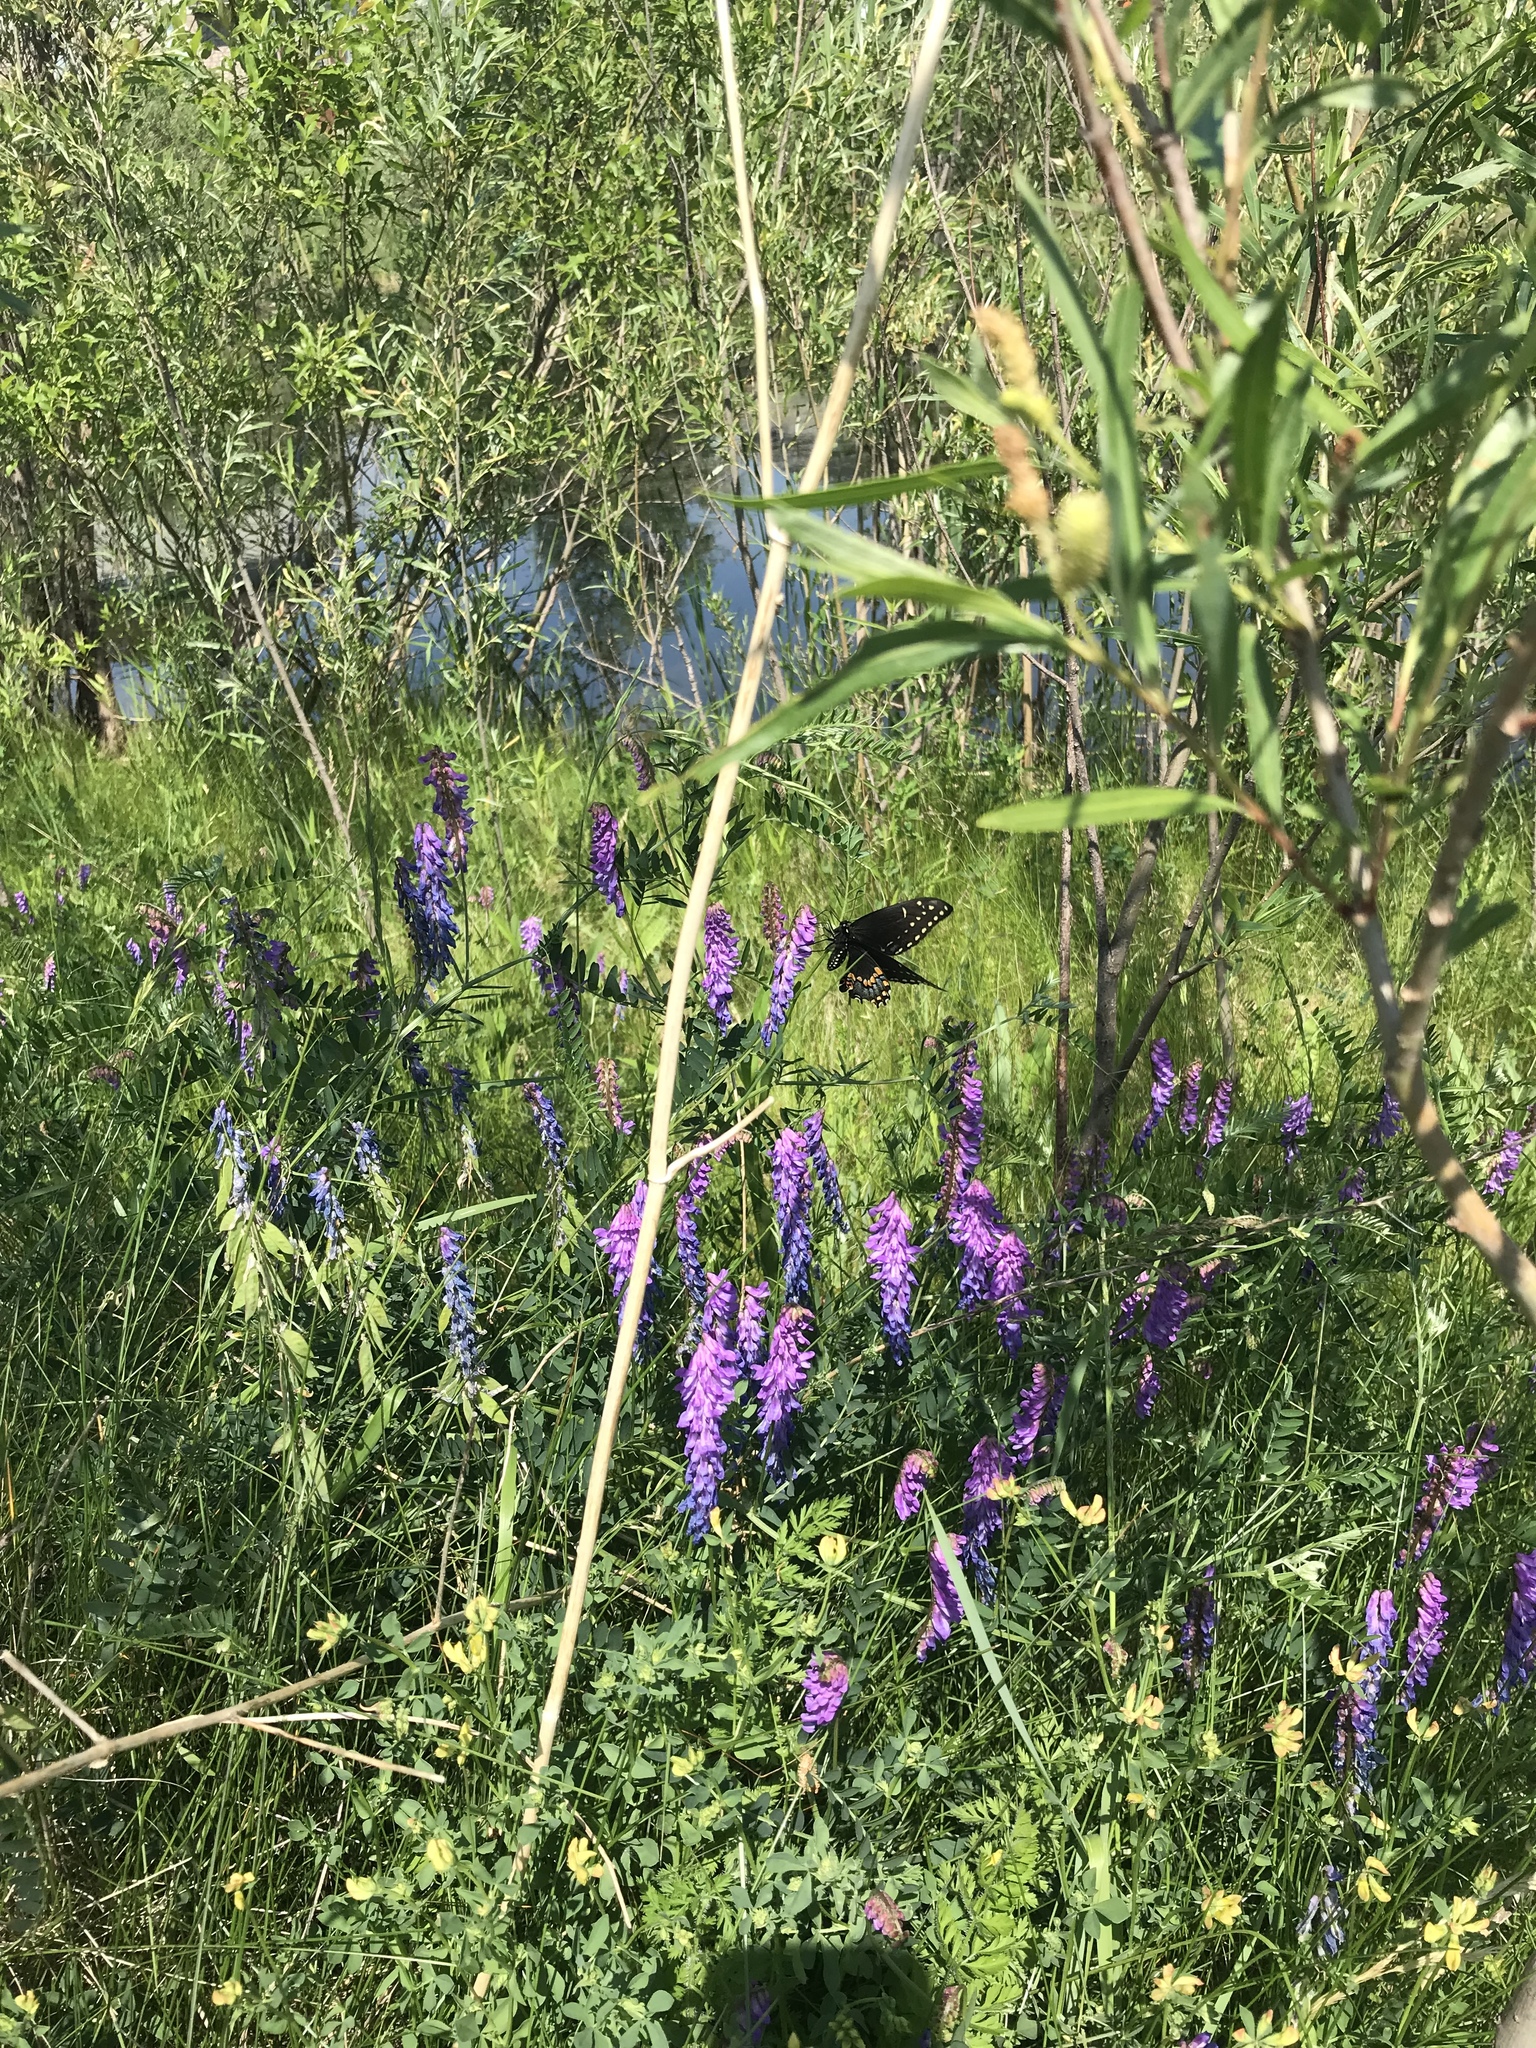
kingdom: Animalia
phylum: Arthropoda
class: Insecta
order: Lepidoptera
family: Papilionidae
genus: Papilio
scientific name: Papilio polyxenes
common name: Black swallowtail
